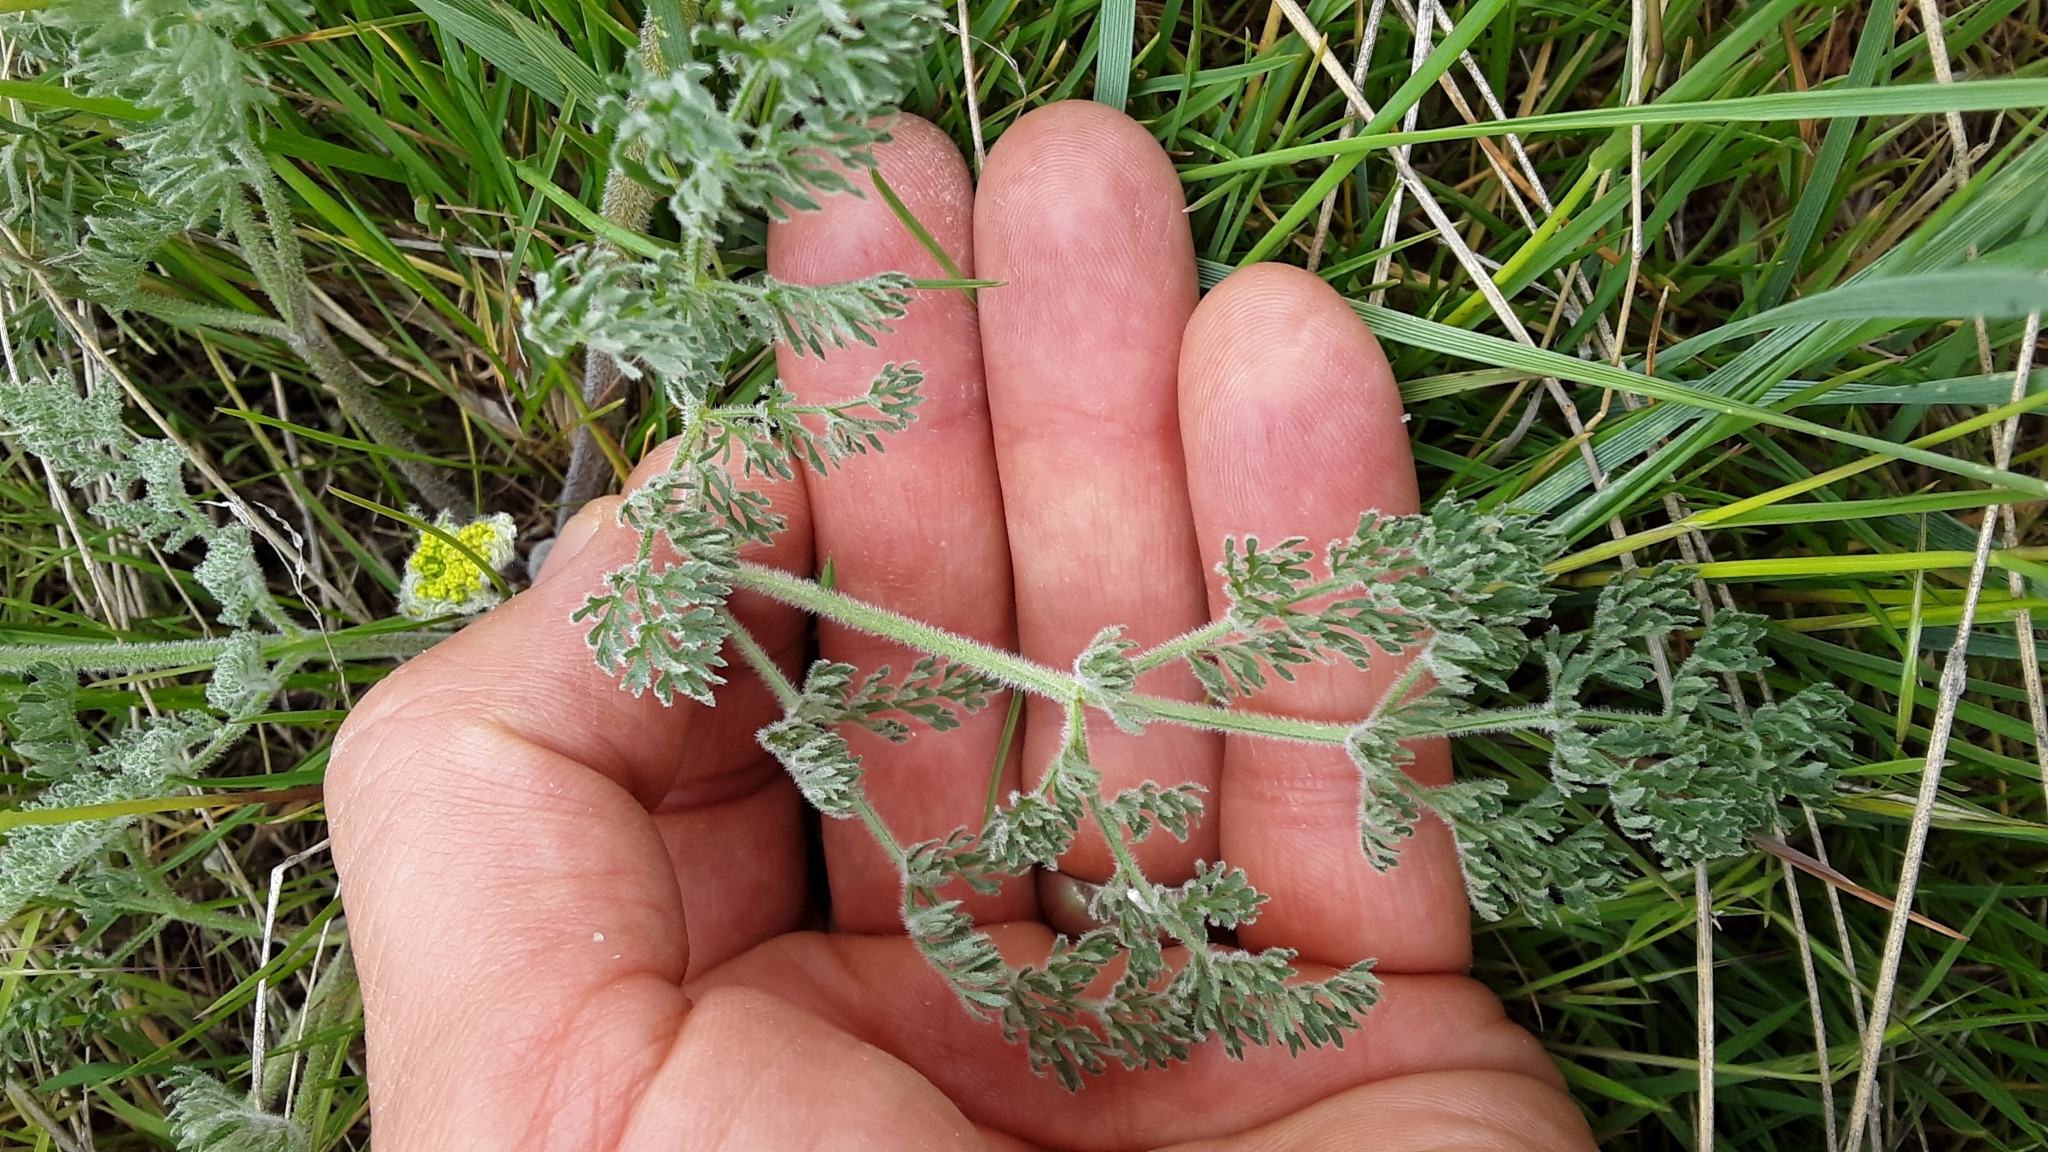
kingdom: Plantae
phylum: Tracheophyta
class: Magnoliopsida
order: Apiales
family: Apiaceae
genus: Lomatium
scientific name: Lomatium foeniculaceum
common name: Desert-parsley
